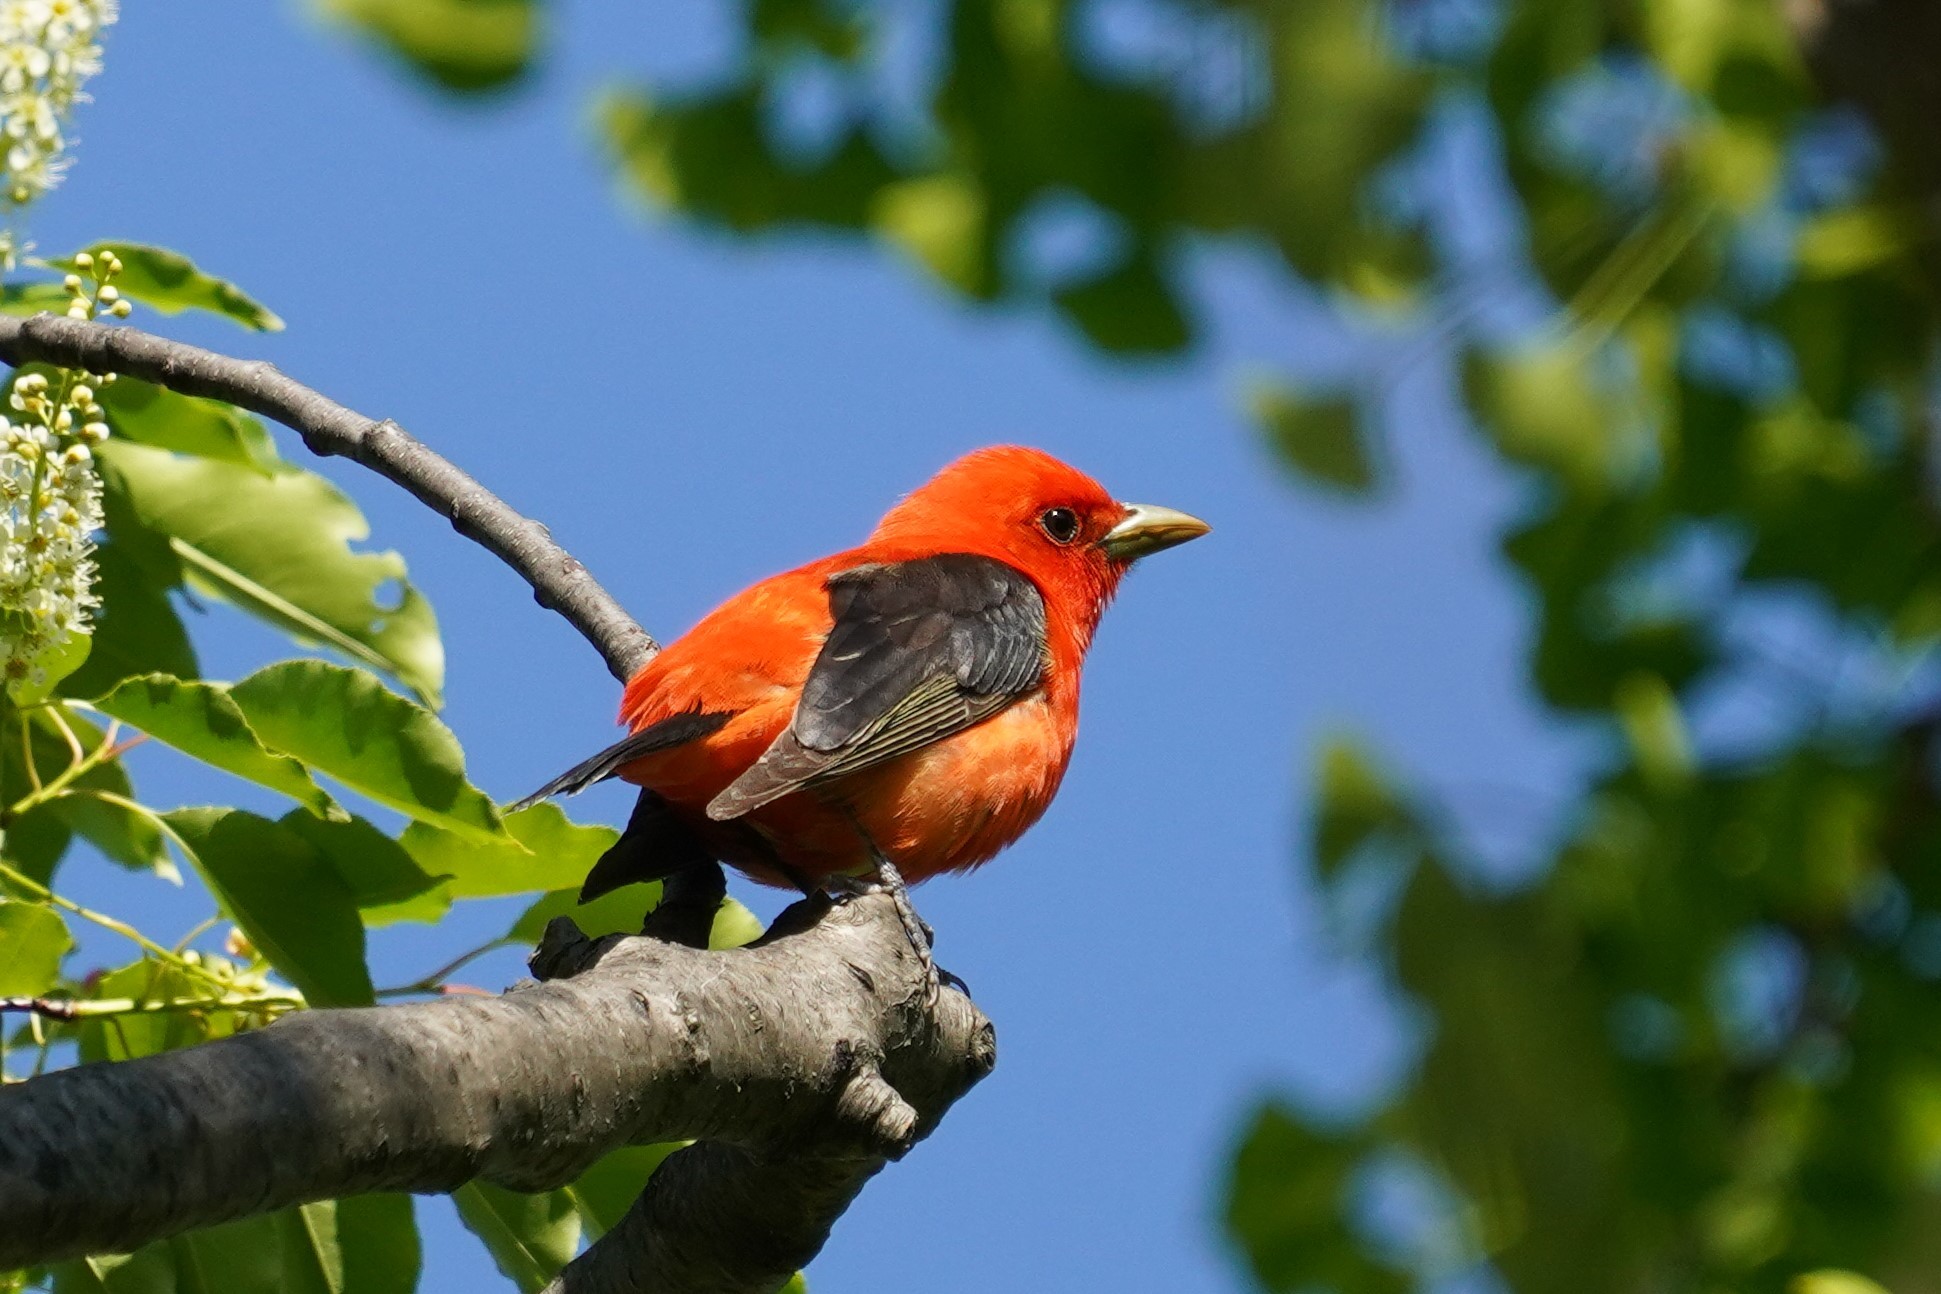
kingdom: Animalia
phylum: Chordata
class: Aves
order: Passeriformes
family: Cardinalidae
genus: Piranga
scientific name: Piranga olivacea
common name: Scarlet tanager
